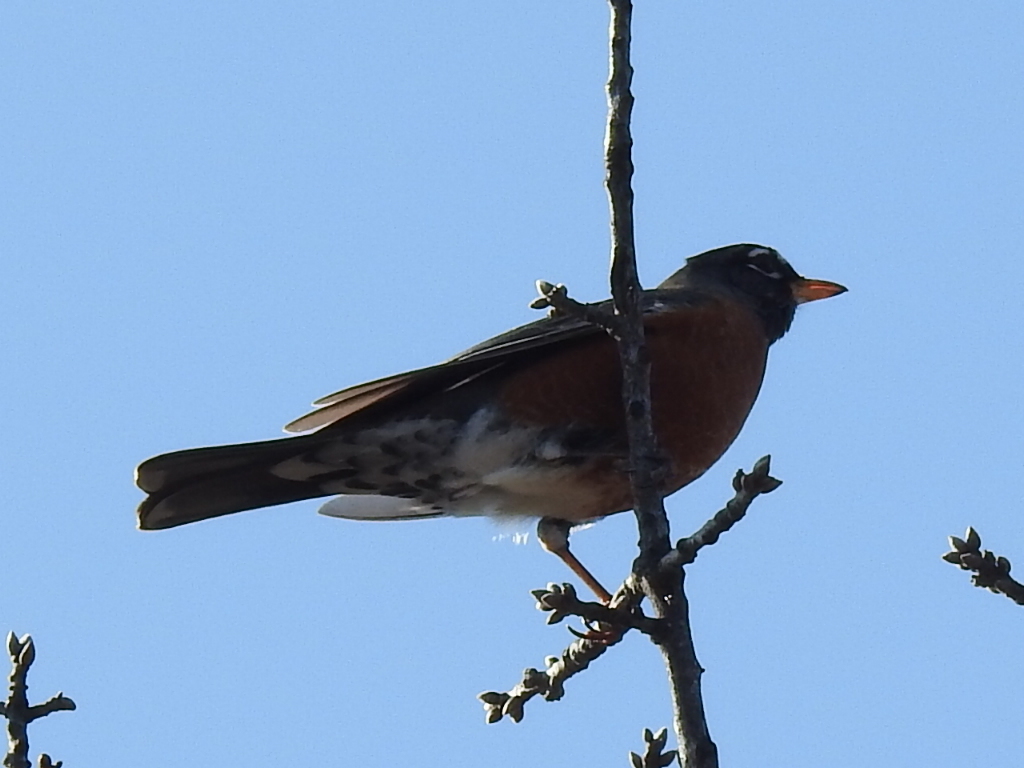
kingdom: Animalia
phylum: Chordata
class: Aves
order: Passeriformes
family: Turdidae
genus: Turdus
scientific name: Turdus migratorius
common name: American robin
